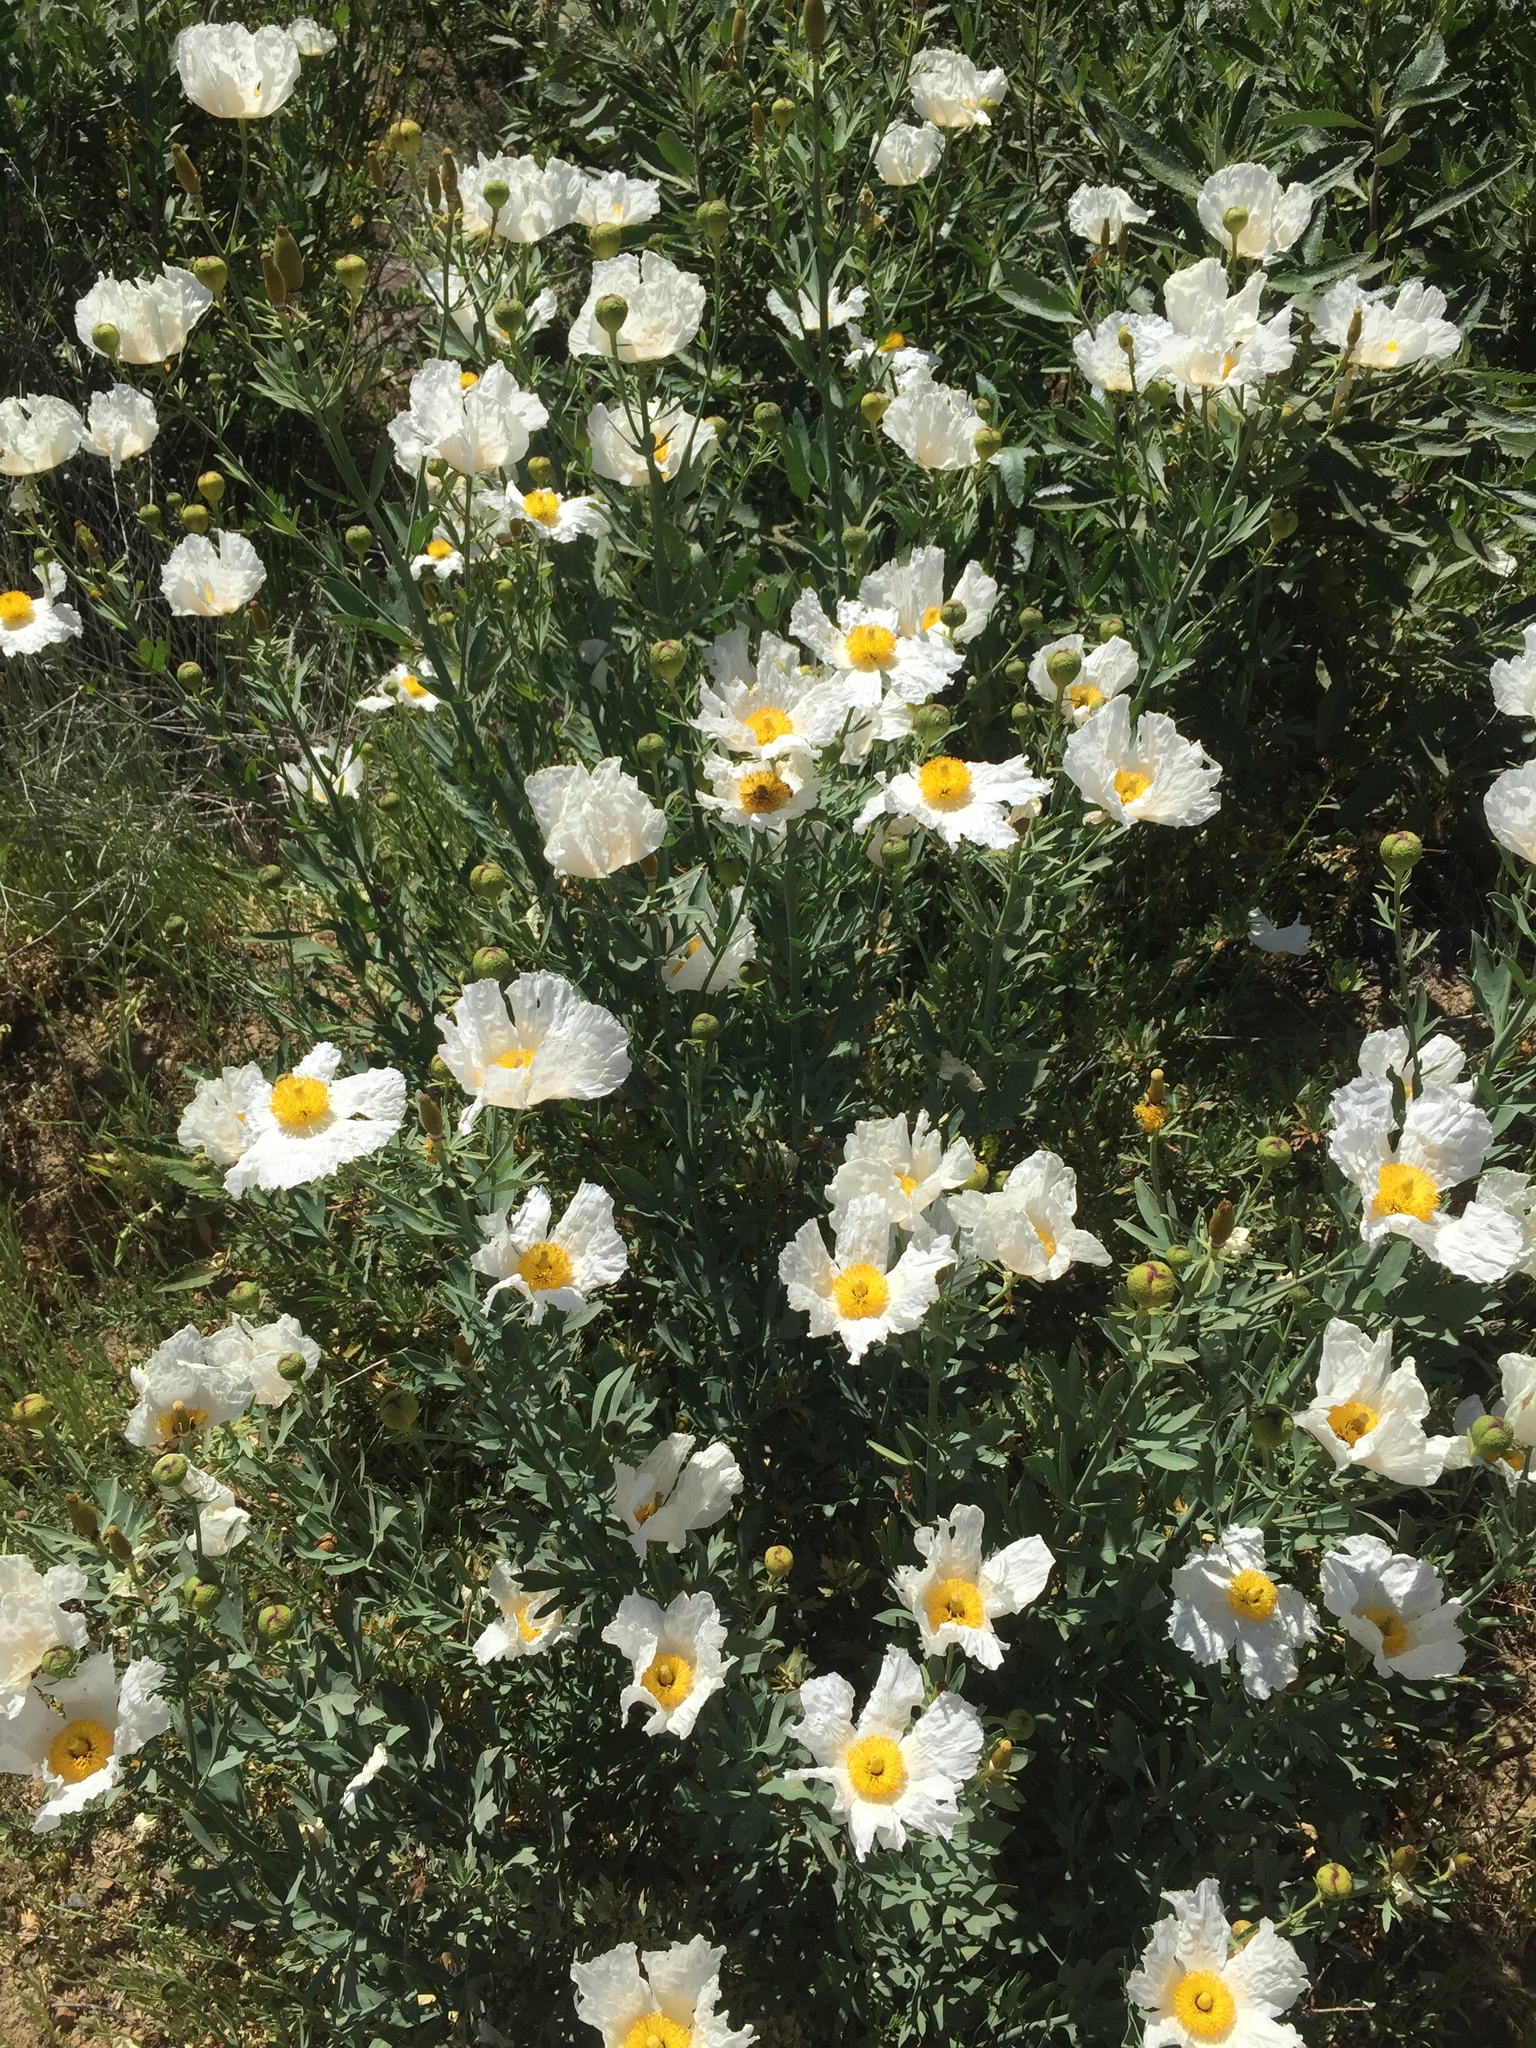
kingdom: Plantae
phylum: Tracheophyta
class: Magnoliopsida
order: Ranunculales
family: Papaveraceae
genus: Romneya
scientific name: Romneya coulteri
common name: California tree-poppy
